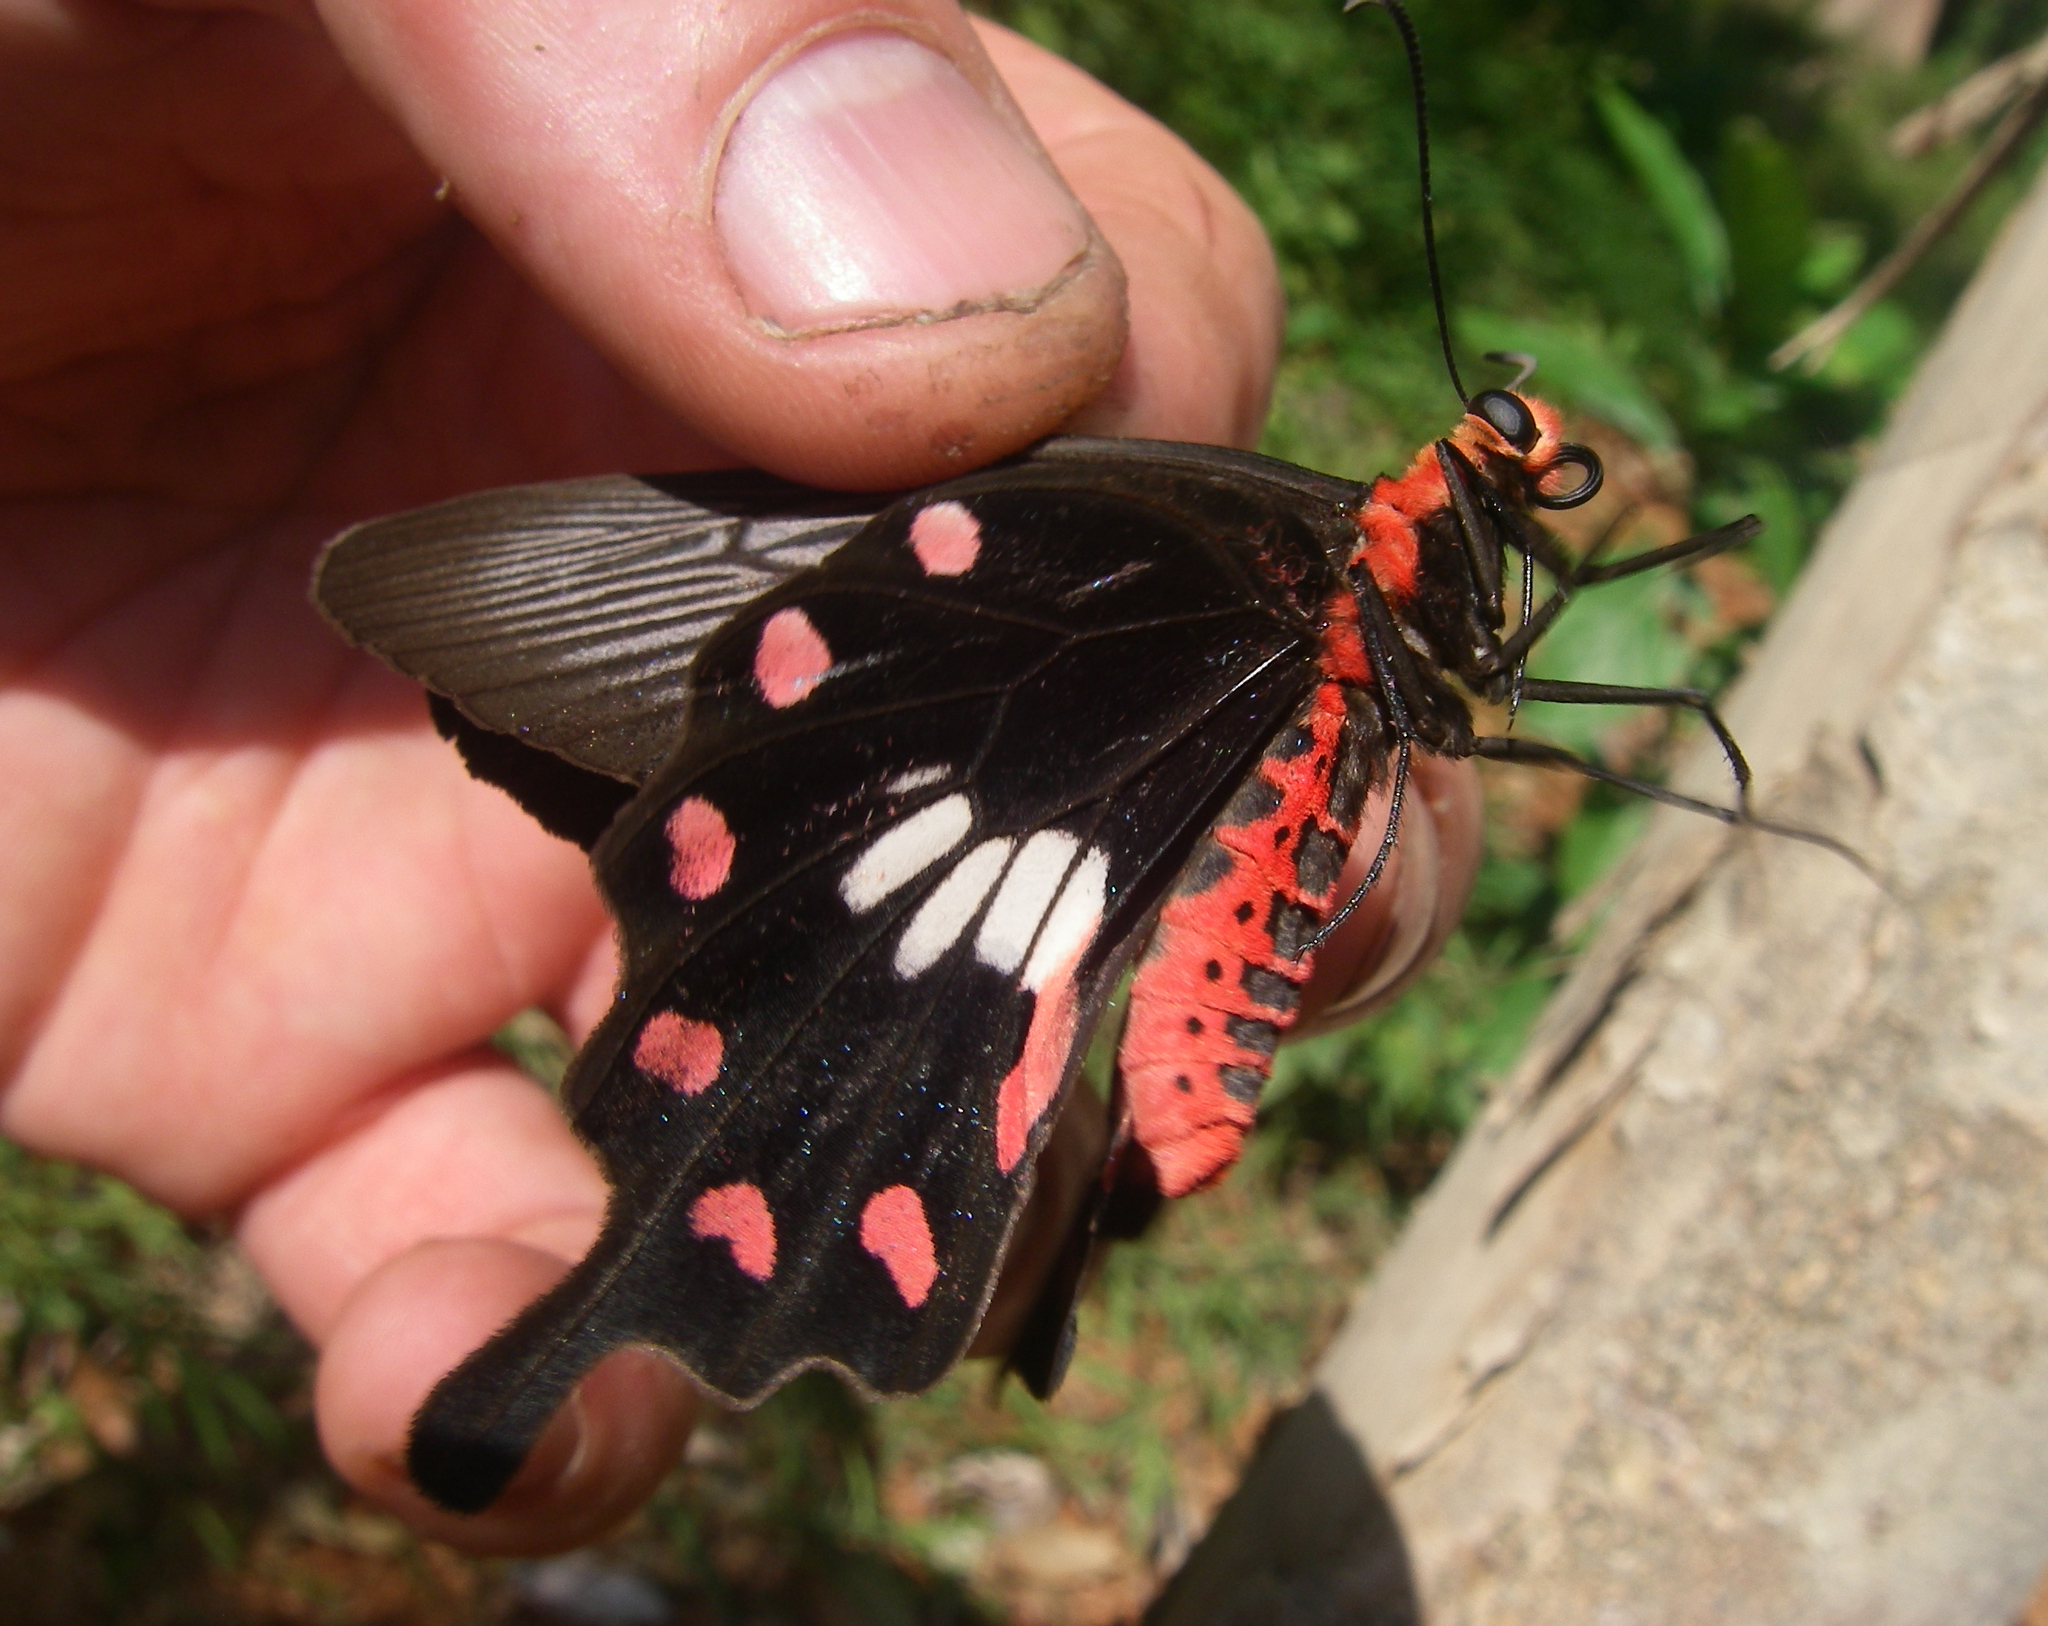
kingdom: Animalia
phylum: Arthropoda
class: Insecta
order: Lepidoptera
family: Papilionidae
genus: Pachliopta
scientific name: Pachliopta aristolochiae
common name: Common rose
